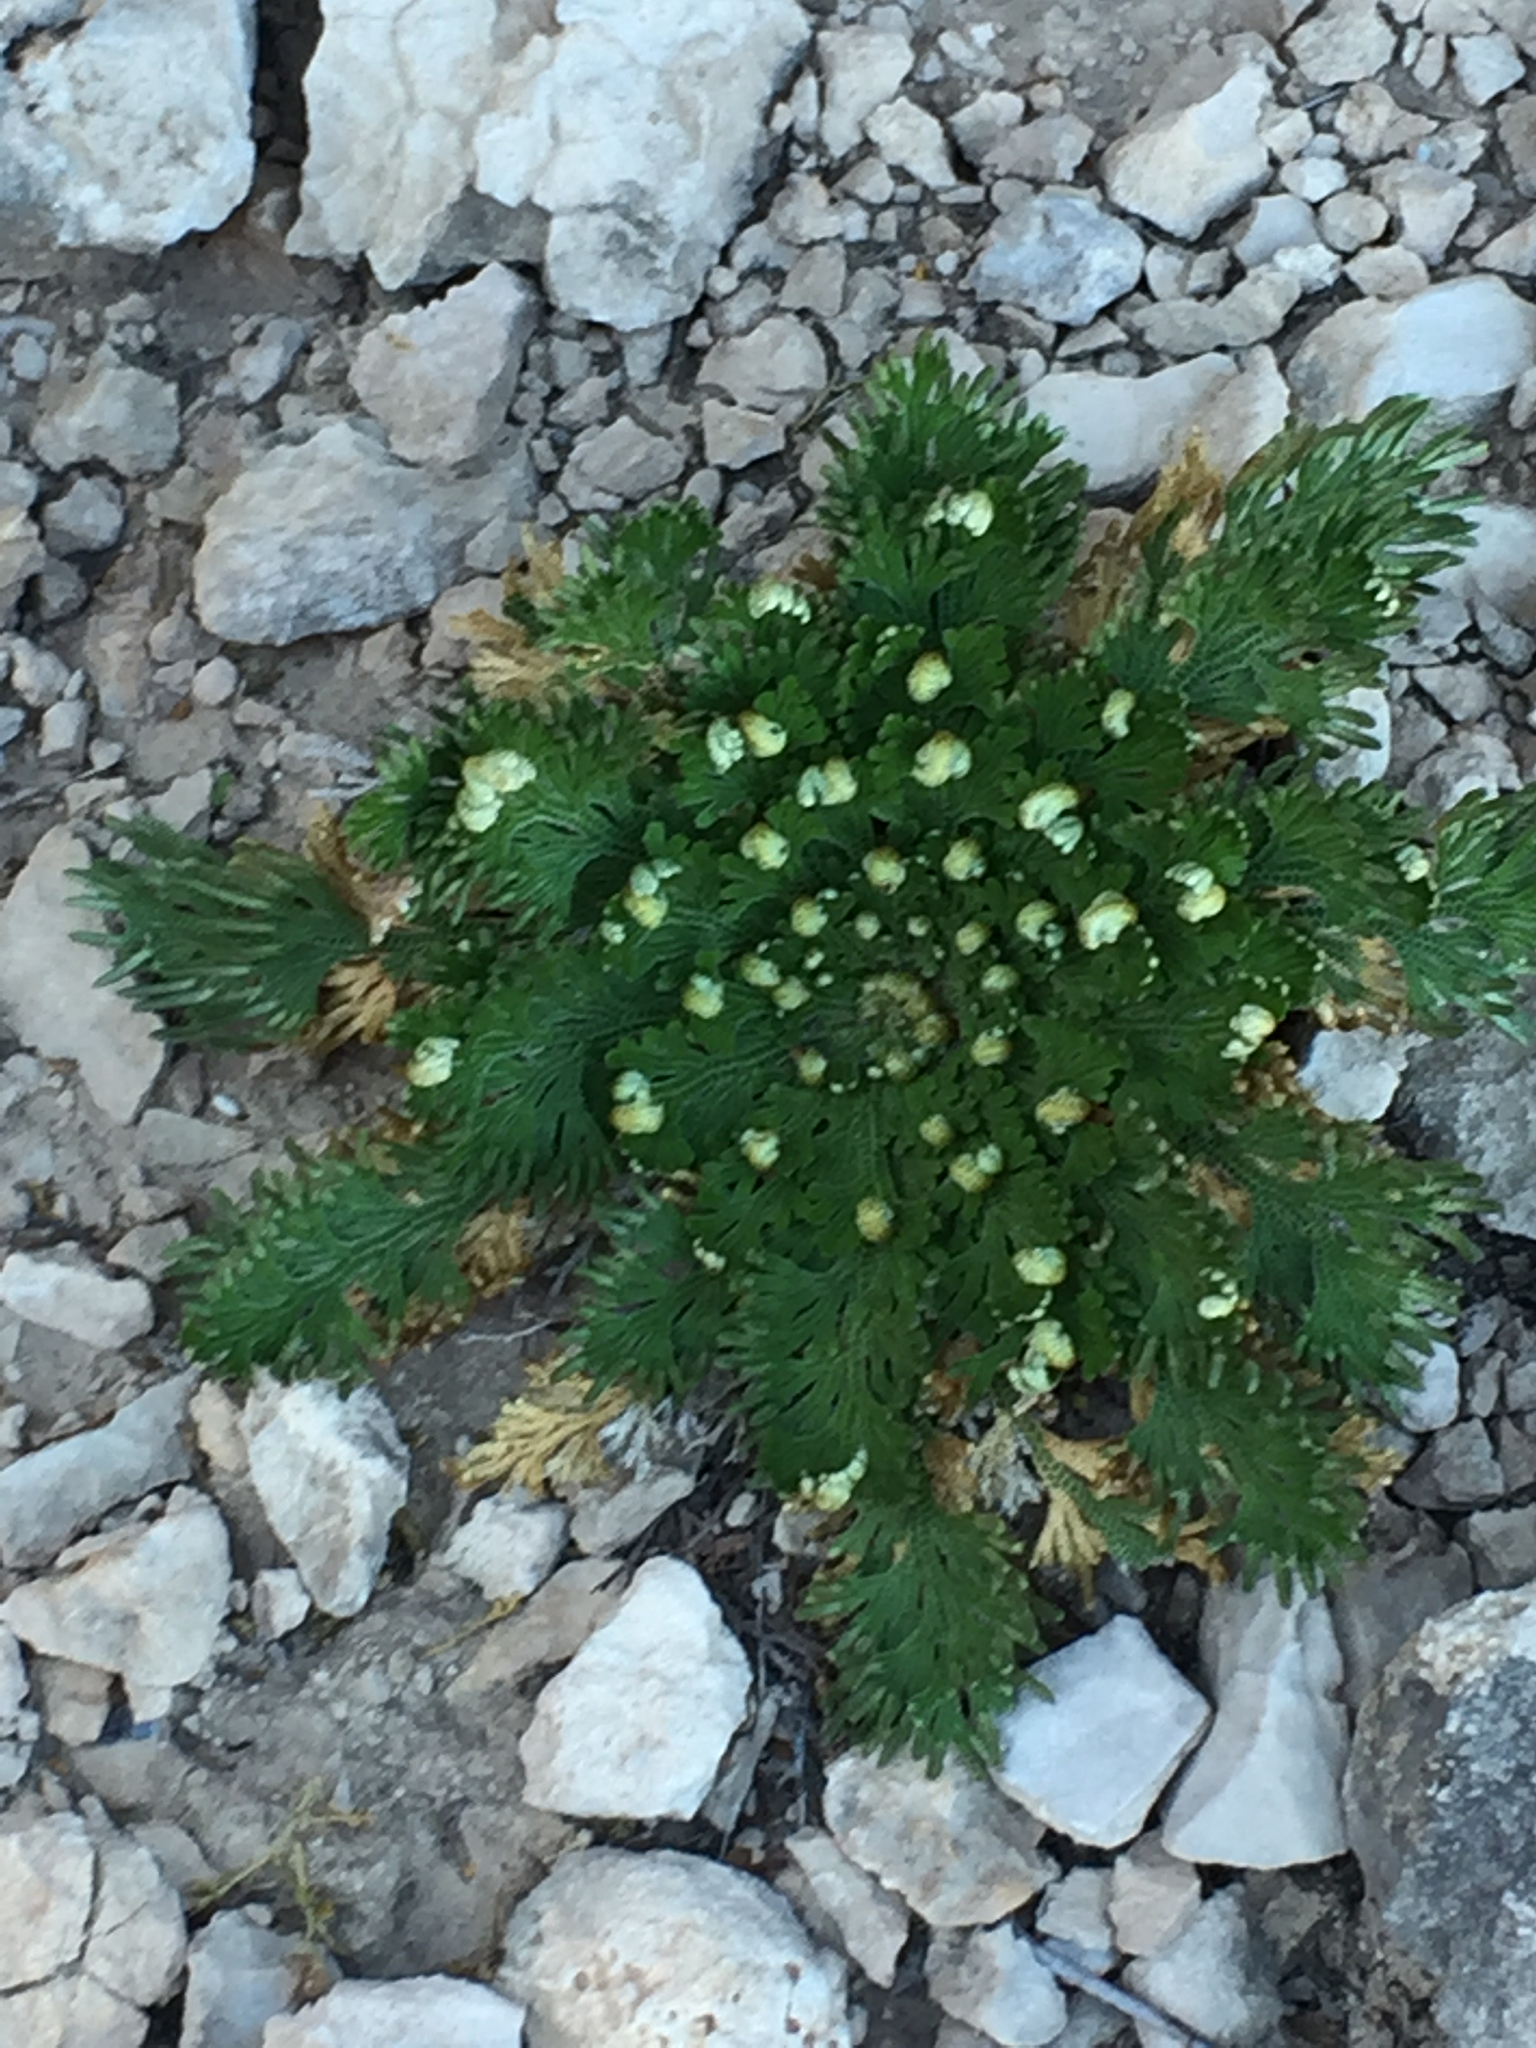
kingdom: Plantae
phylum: Tracheophyta
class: Lycopodiopsida
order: Selaginellales
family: Selaginellaceae
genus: Selaginella
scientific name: Selaginella lepidophylla
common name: Rose-of-jericho
